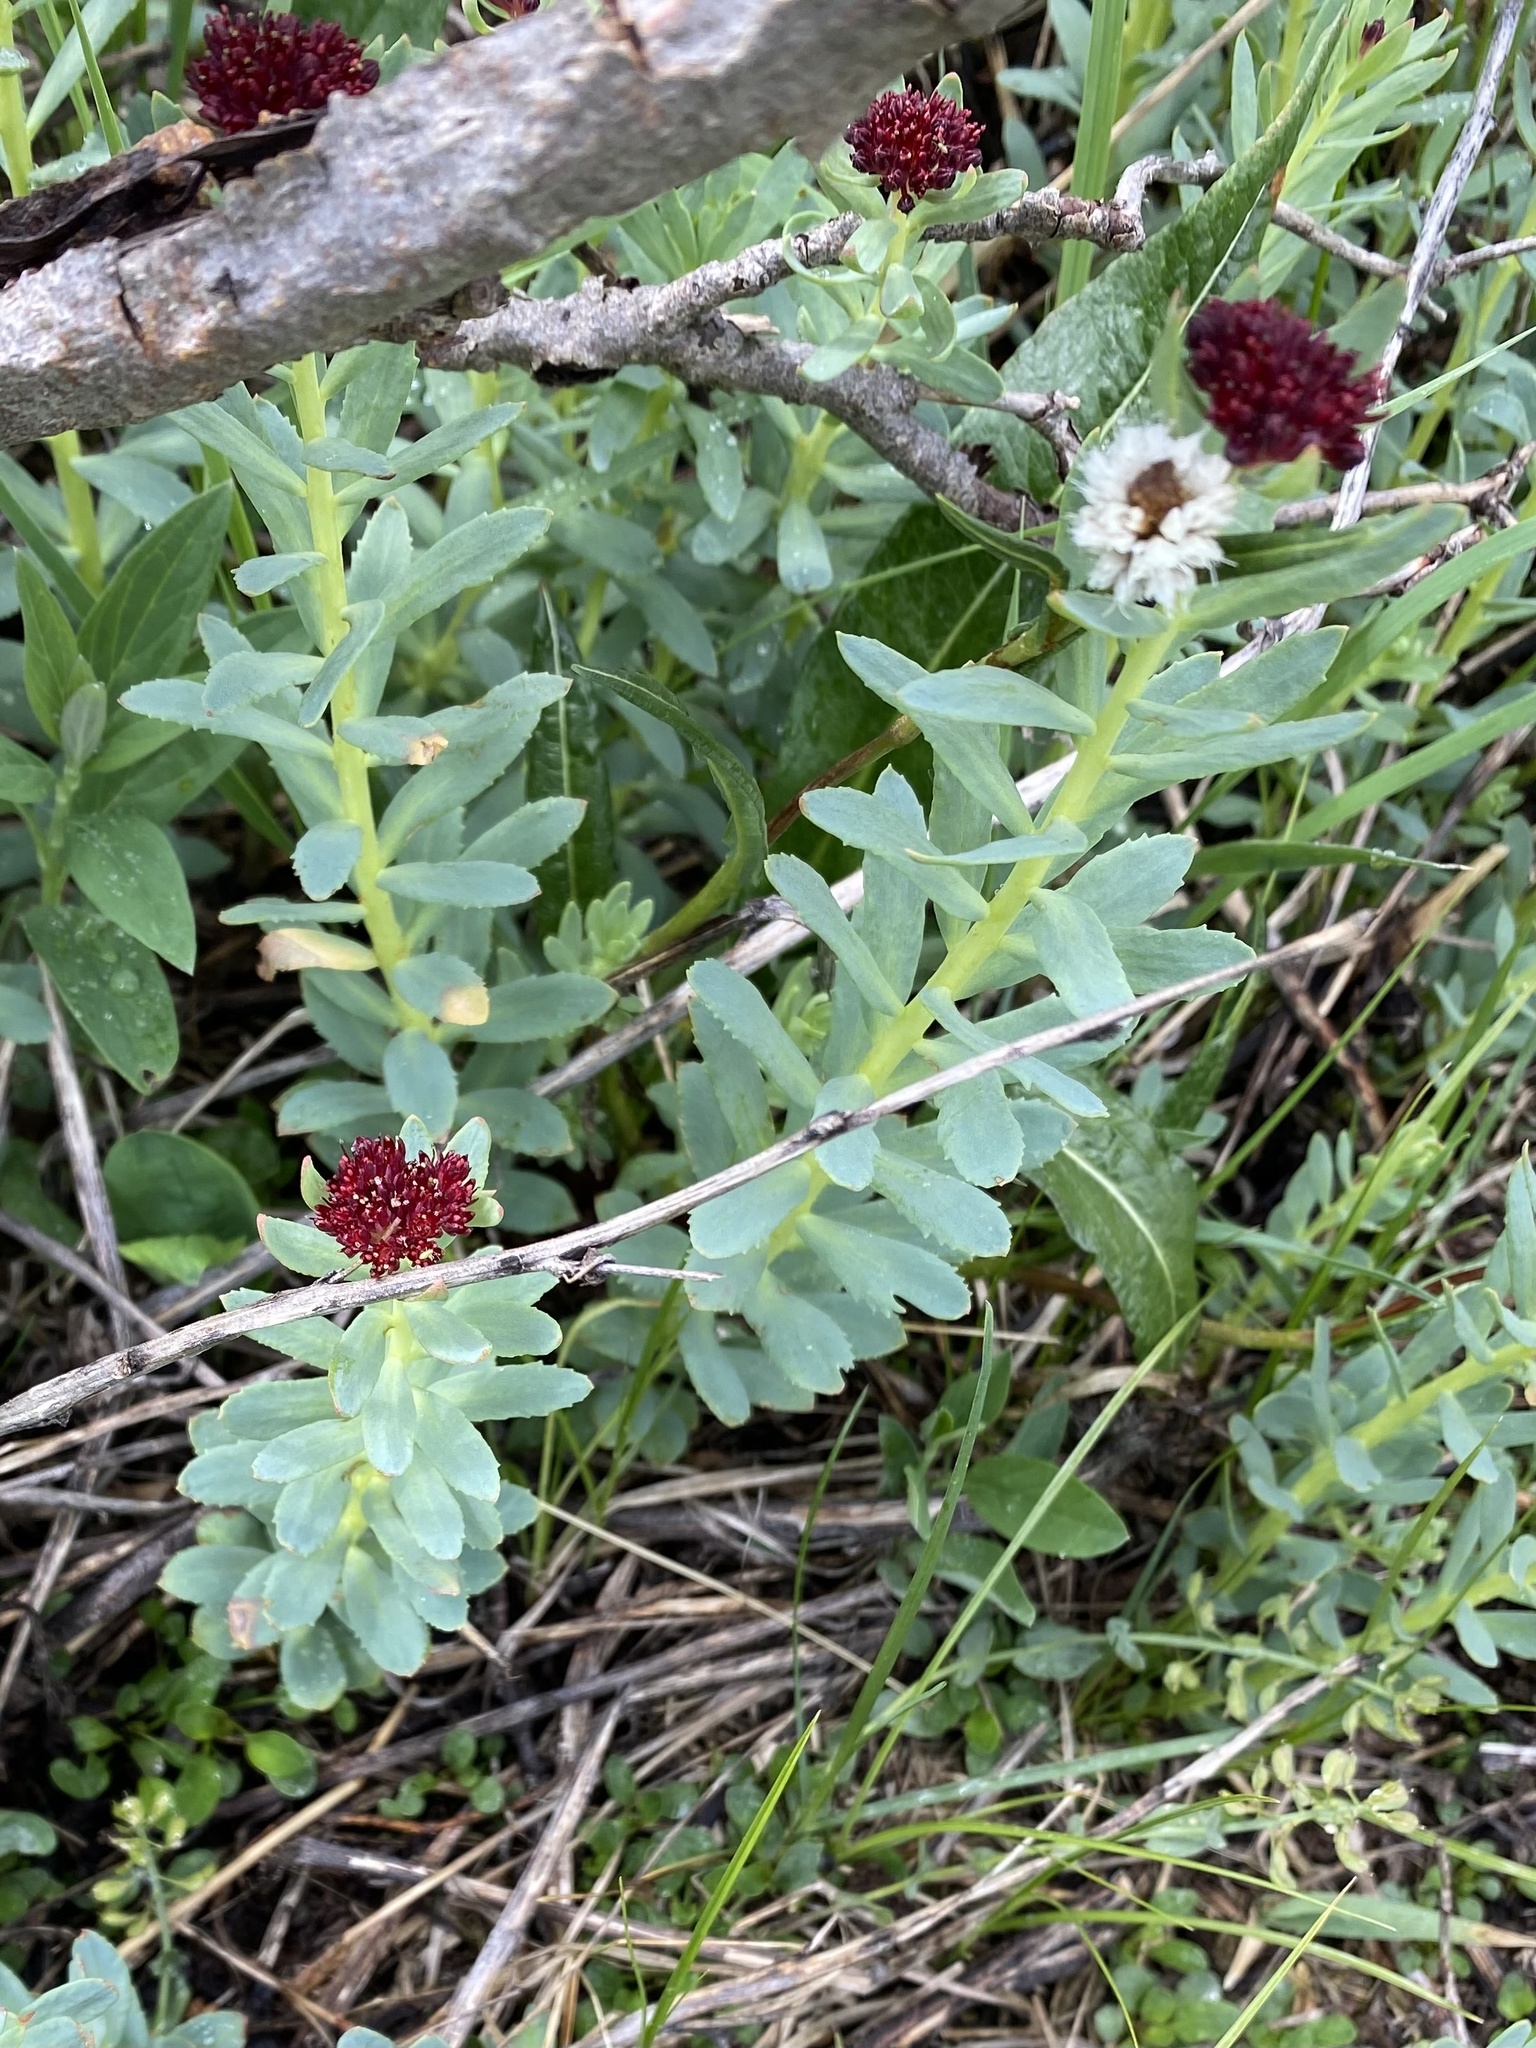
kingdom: Plantae
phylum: Tracheophyta
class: Magnoliopsida
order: Saxifragales
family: Crassulaceae
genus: Rhodiola
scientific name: Rhodiola integrifolia
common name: Western roseroot
